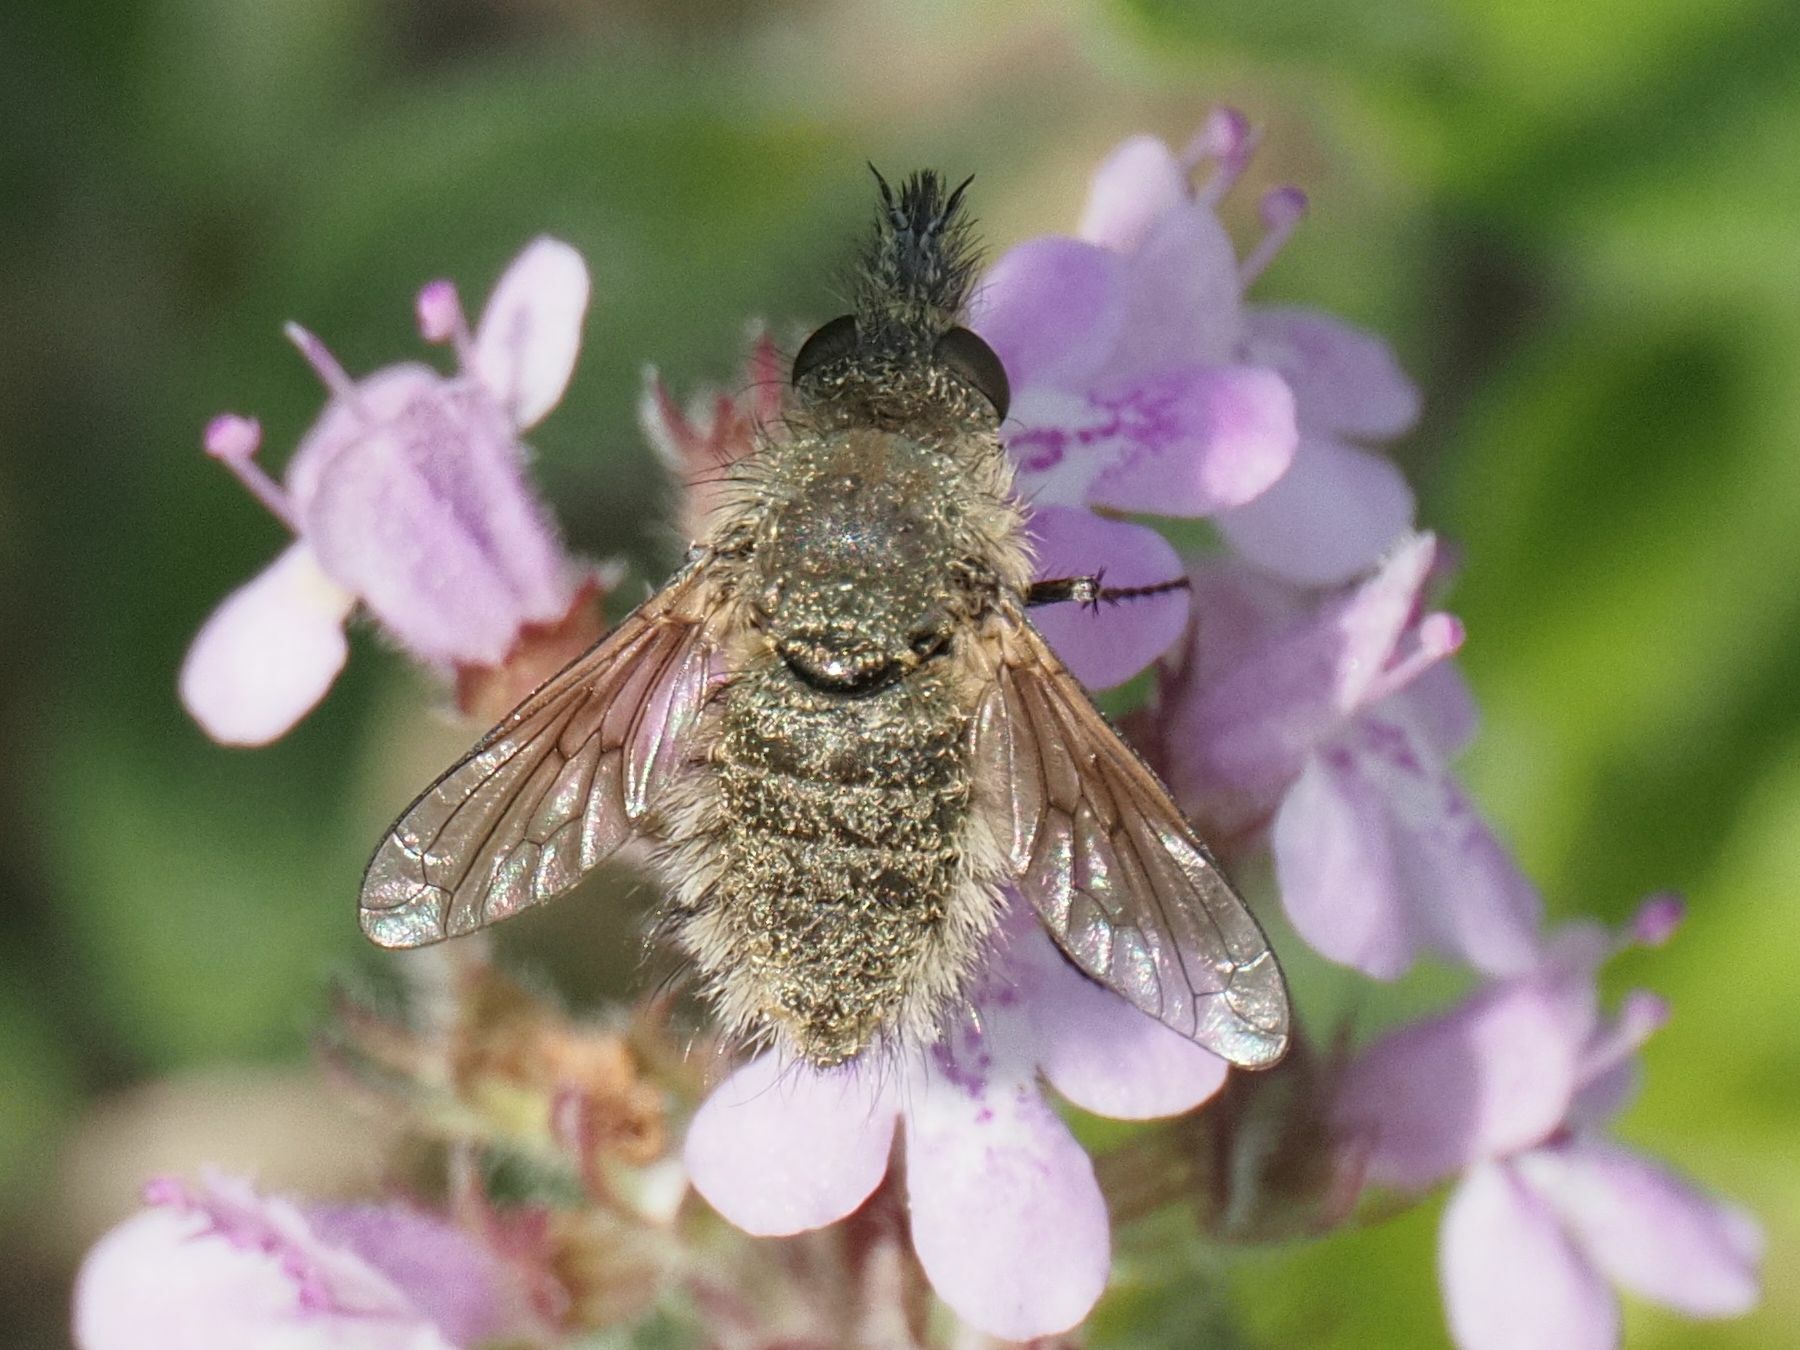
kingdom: Animalia
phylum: Arthropoda
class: Insecta
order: Diptera
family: Bombyliidae
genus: Conophorus
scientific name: Conophorus virescens
